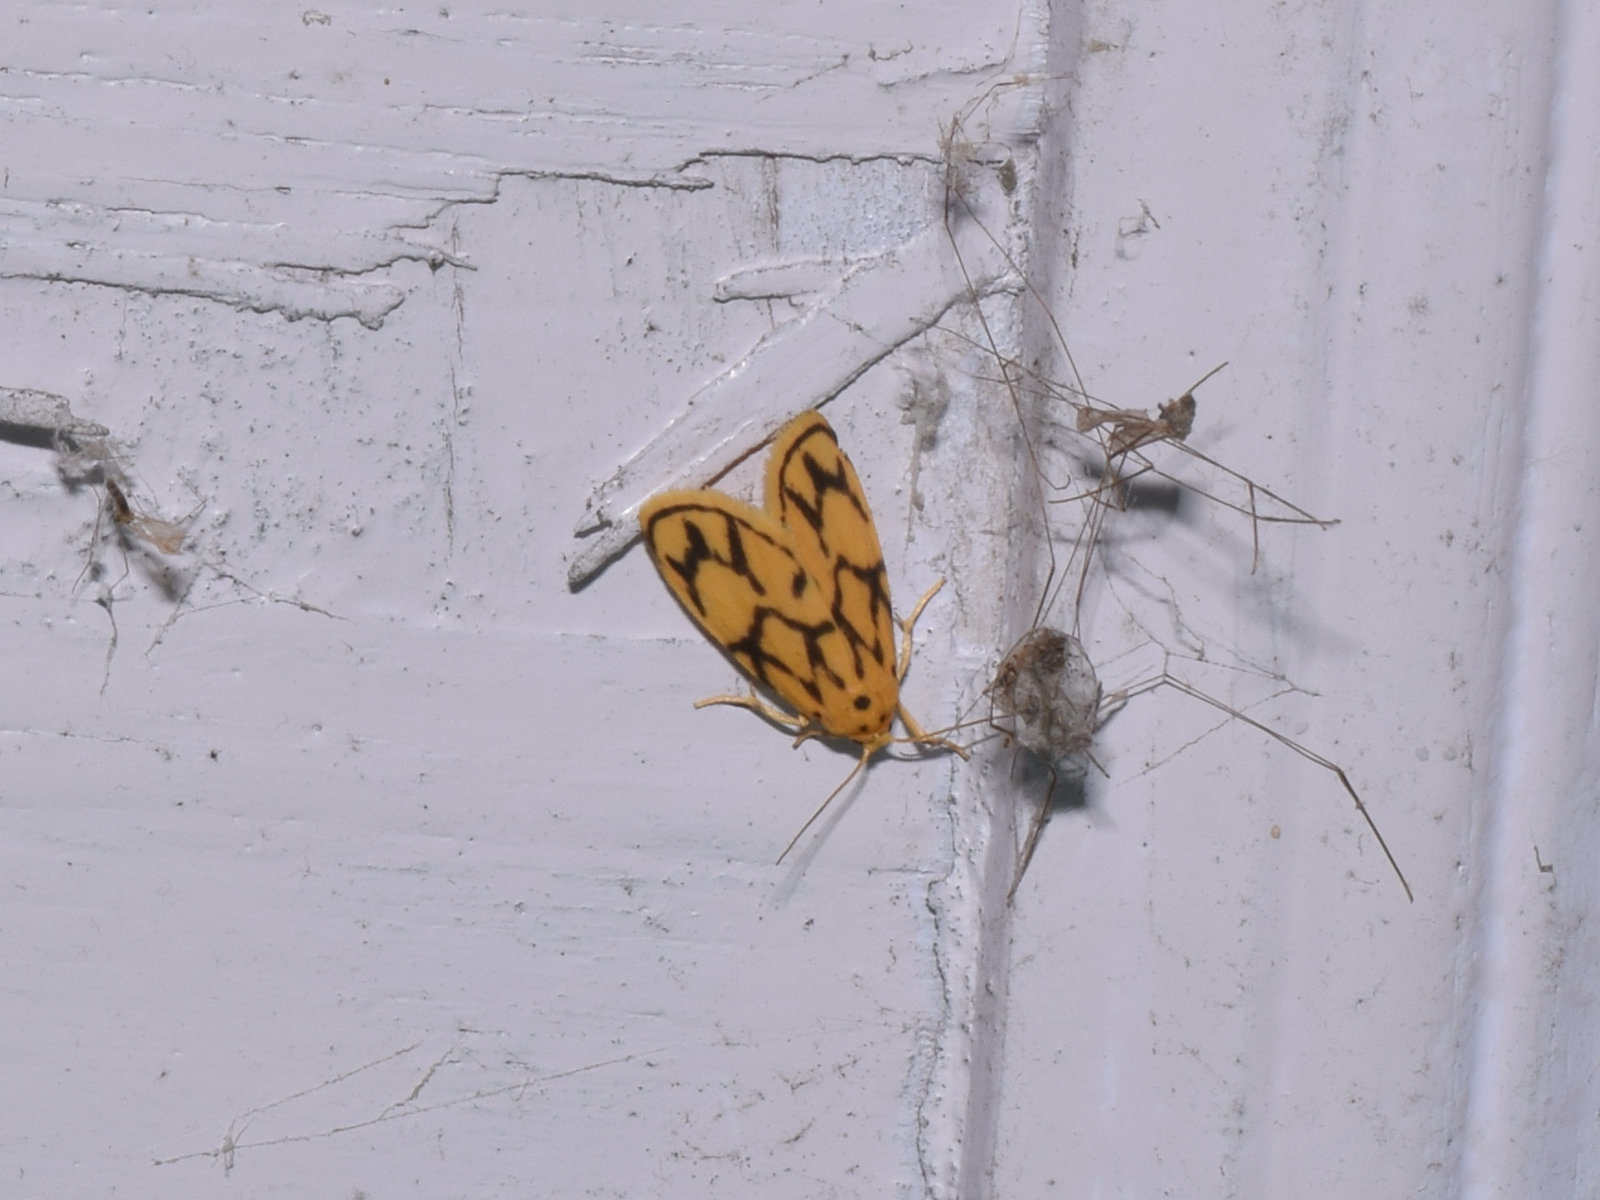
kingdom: Animalia
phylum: Arthropoda
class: Insecta
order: Lepidoptera
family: Erebidae
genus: Miltochrista
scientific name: Miltochrista conjunctana
